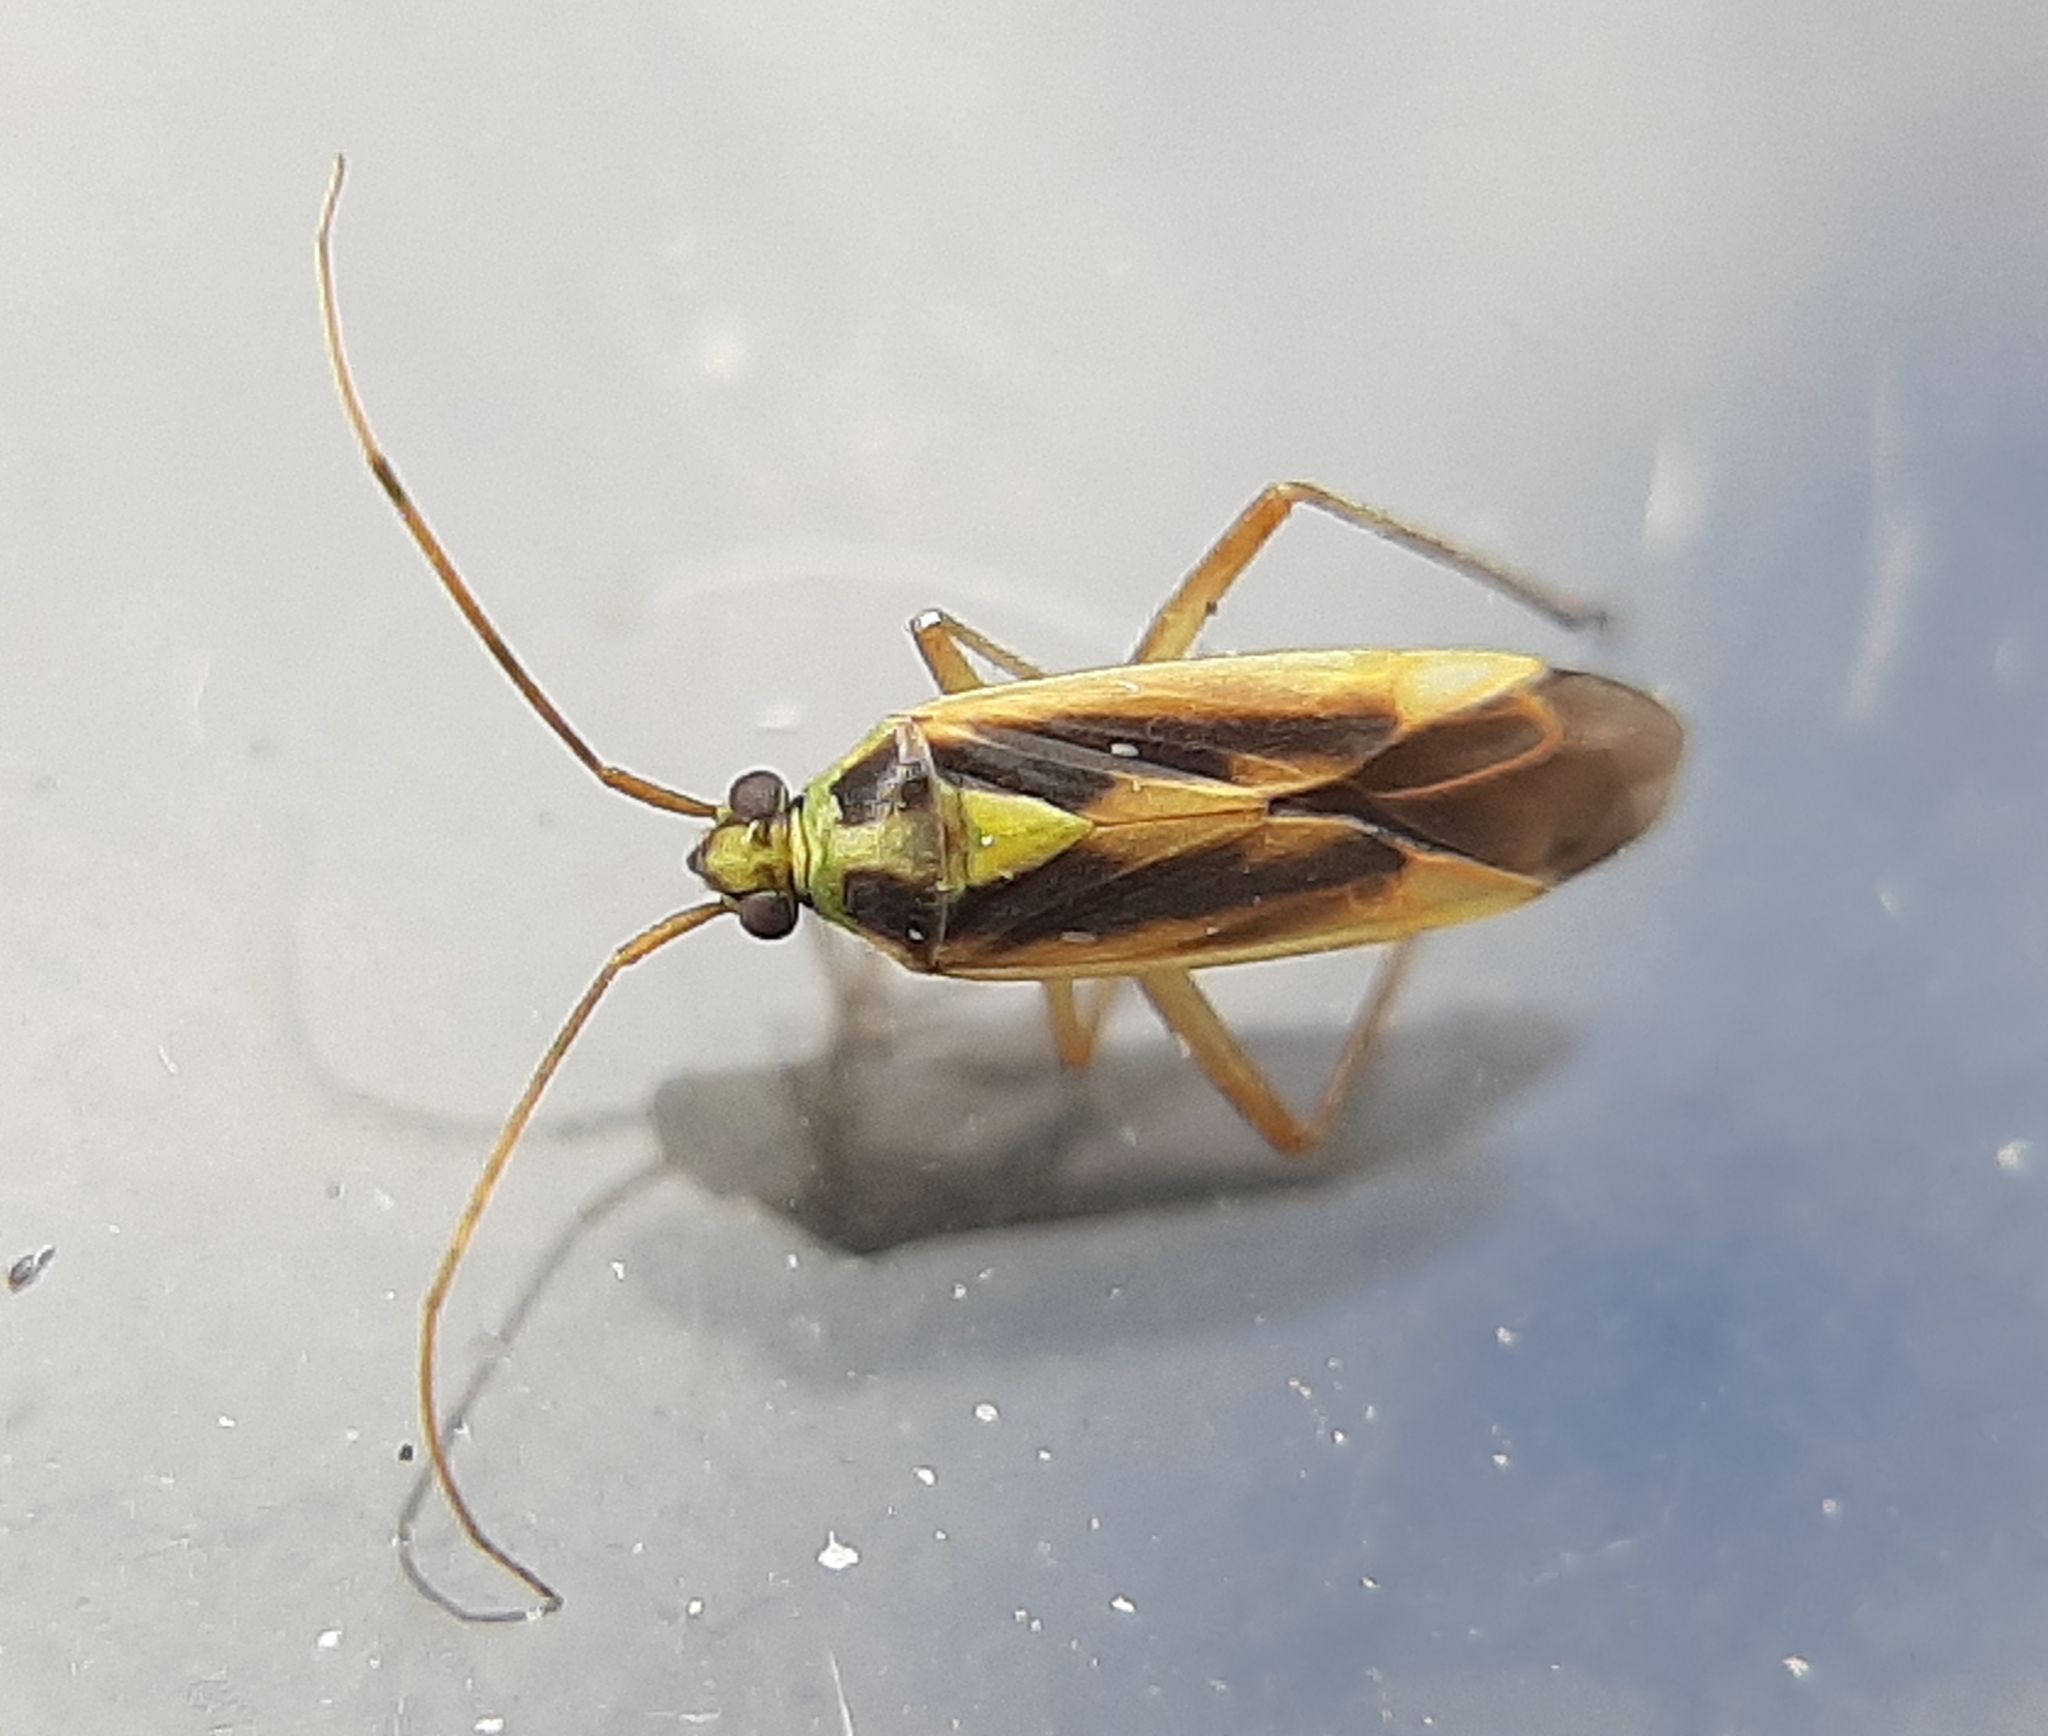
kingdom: Animalia
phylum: Arthropoda
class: Insecta
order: Hemiptera
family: Miridae
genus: Stenotus
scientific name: Stenotus binotatus
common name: Plant bug
